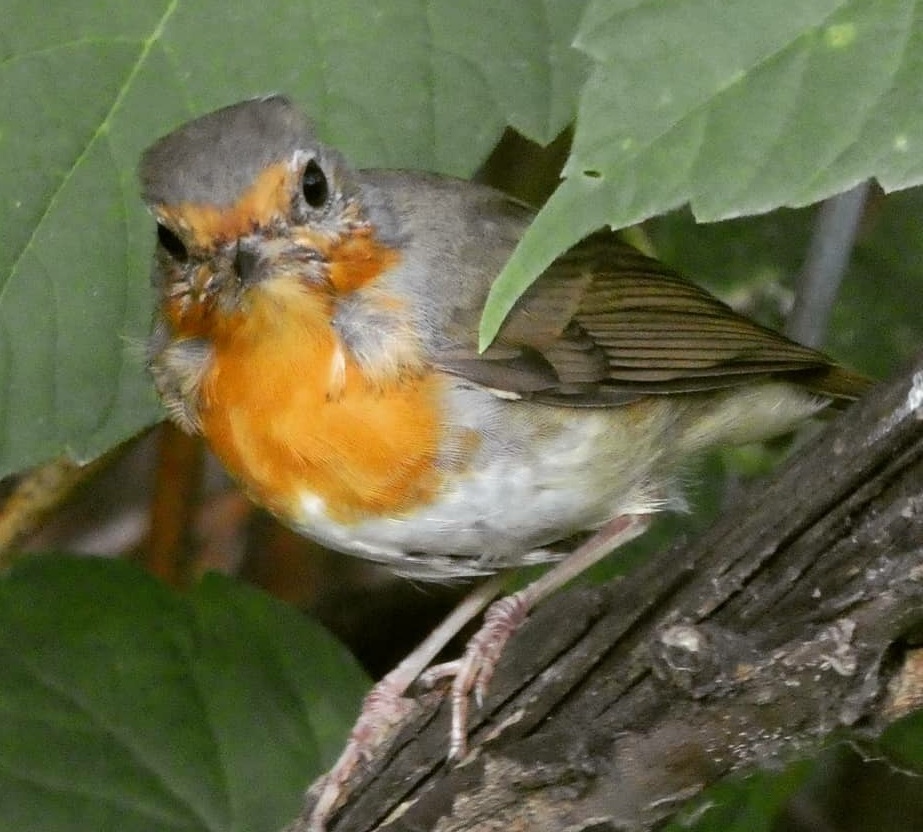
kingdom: Animalia
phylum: Chordata
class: Aves
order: Passeriformes
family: Muscicapidae
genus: Erithacus
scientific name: Erithacus rubecula
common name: European robin
